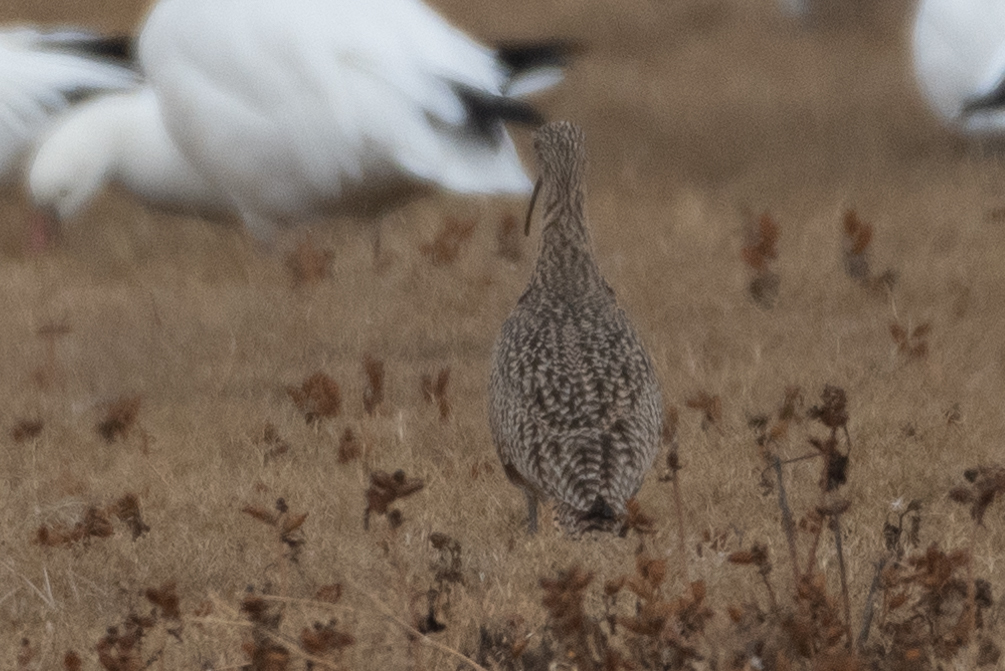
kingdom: Animalia
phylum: Chordata
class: Aves
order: Charadriiformes
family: Scolopacidae
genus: Numenius
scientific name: Numenius americanus
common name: Long-billed curlew
